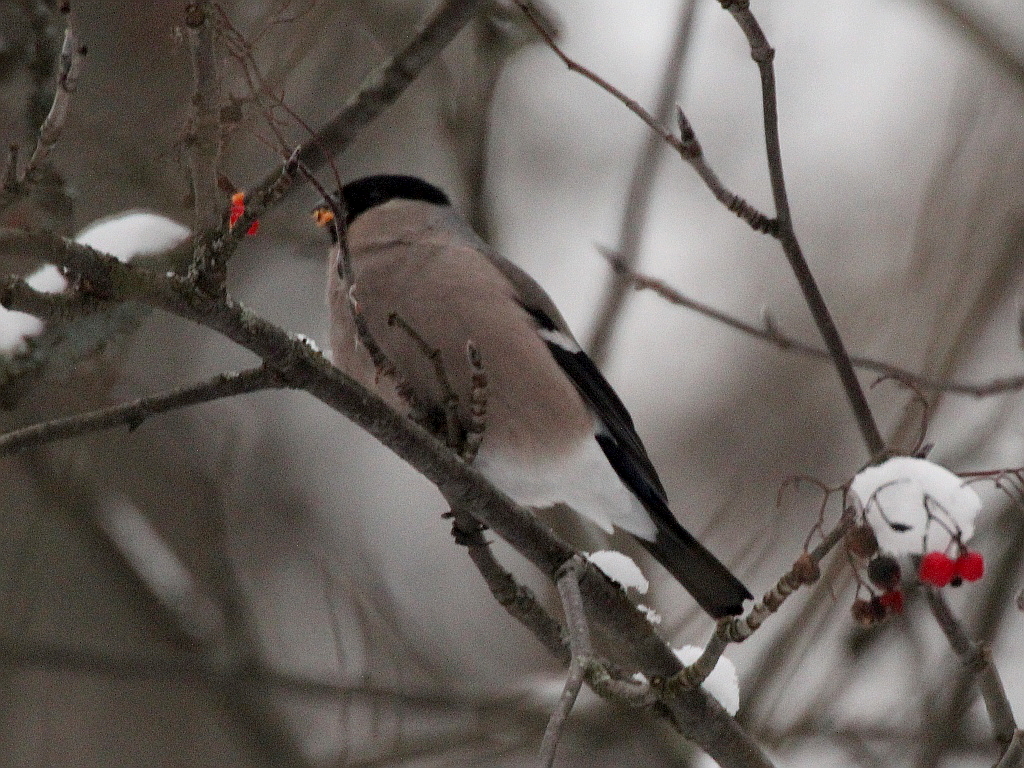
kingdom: Animalia
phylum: Chordata
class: Aves
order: Passeriformes
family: Fringillidae
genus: Pyrrhula
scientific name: Pyrrhula pyrrhula
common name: Eurasian bullfinch
